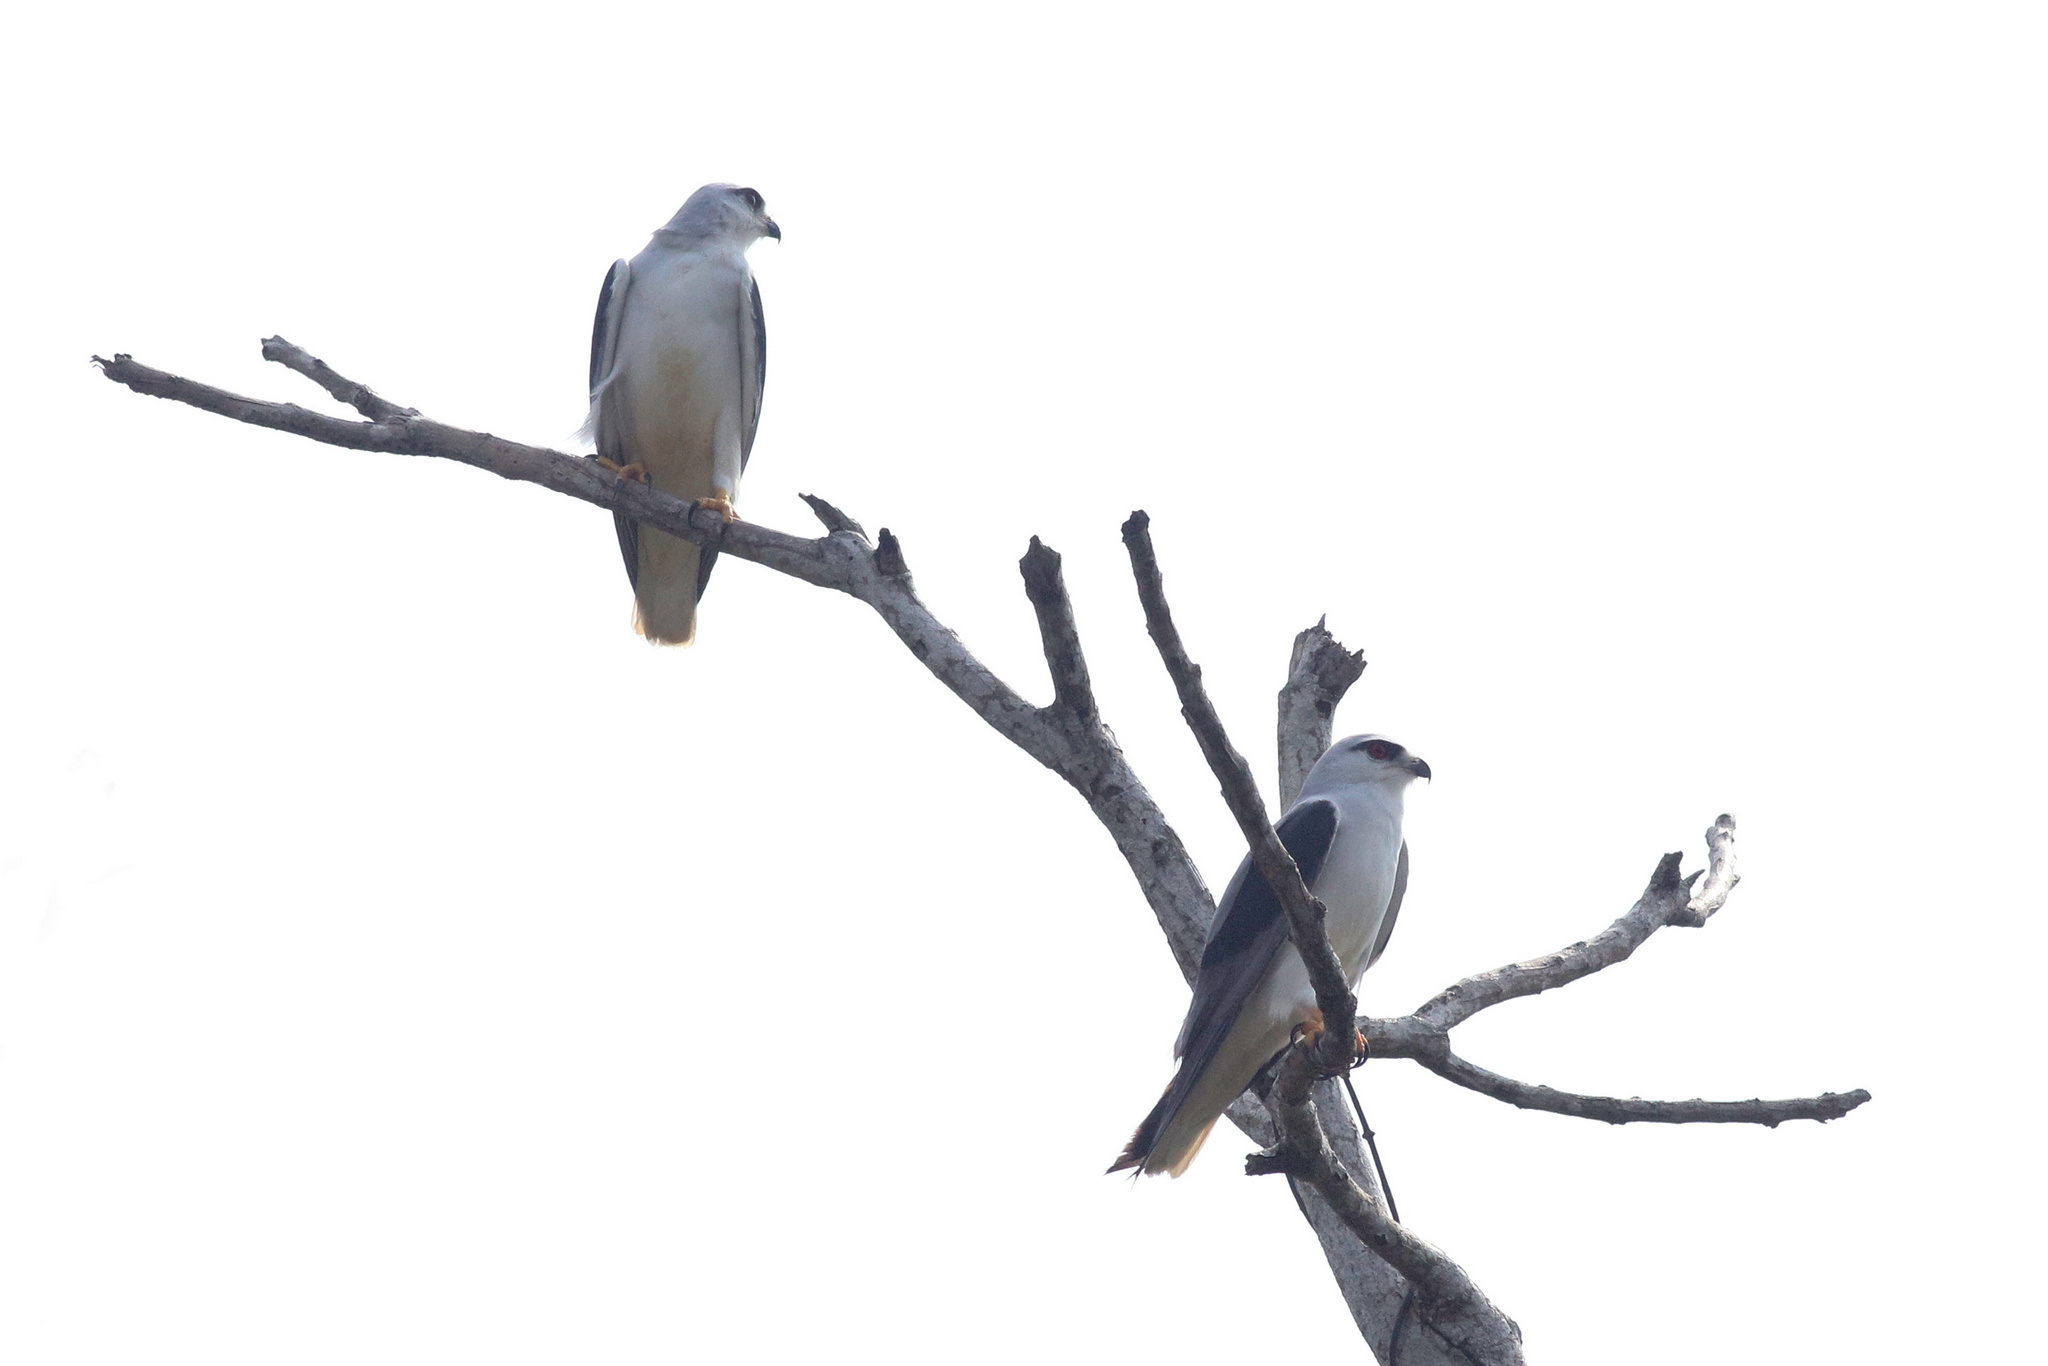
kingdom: Animalia
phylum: Chordata
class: Aves
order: Accipitriformes
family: Accipitridae
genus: Elanus
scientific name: Elanus caeruleus
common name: Black-winged kite
